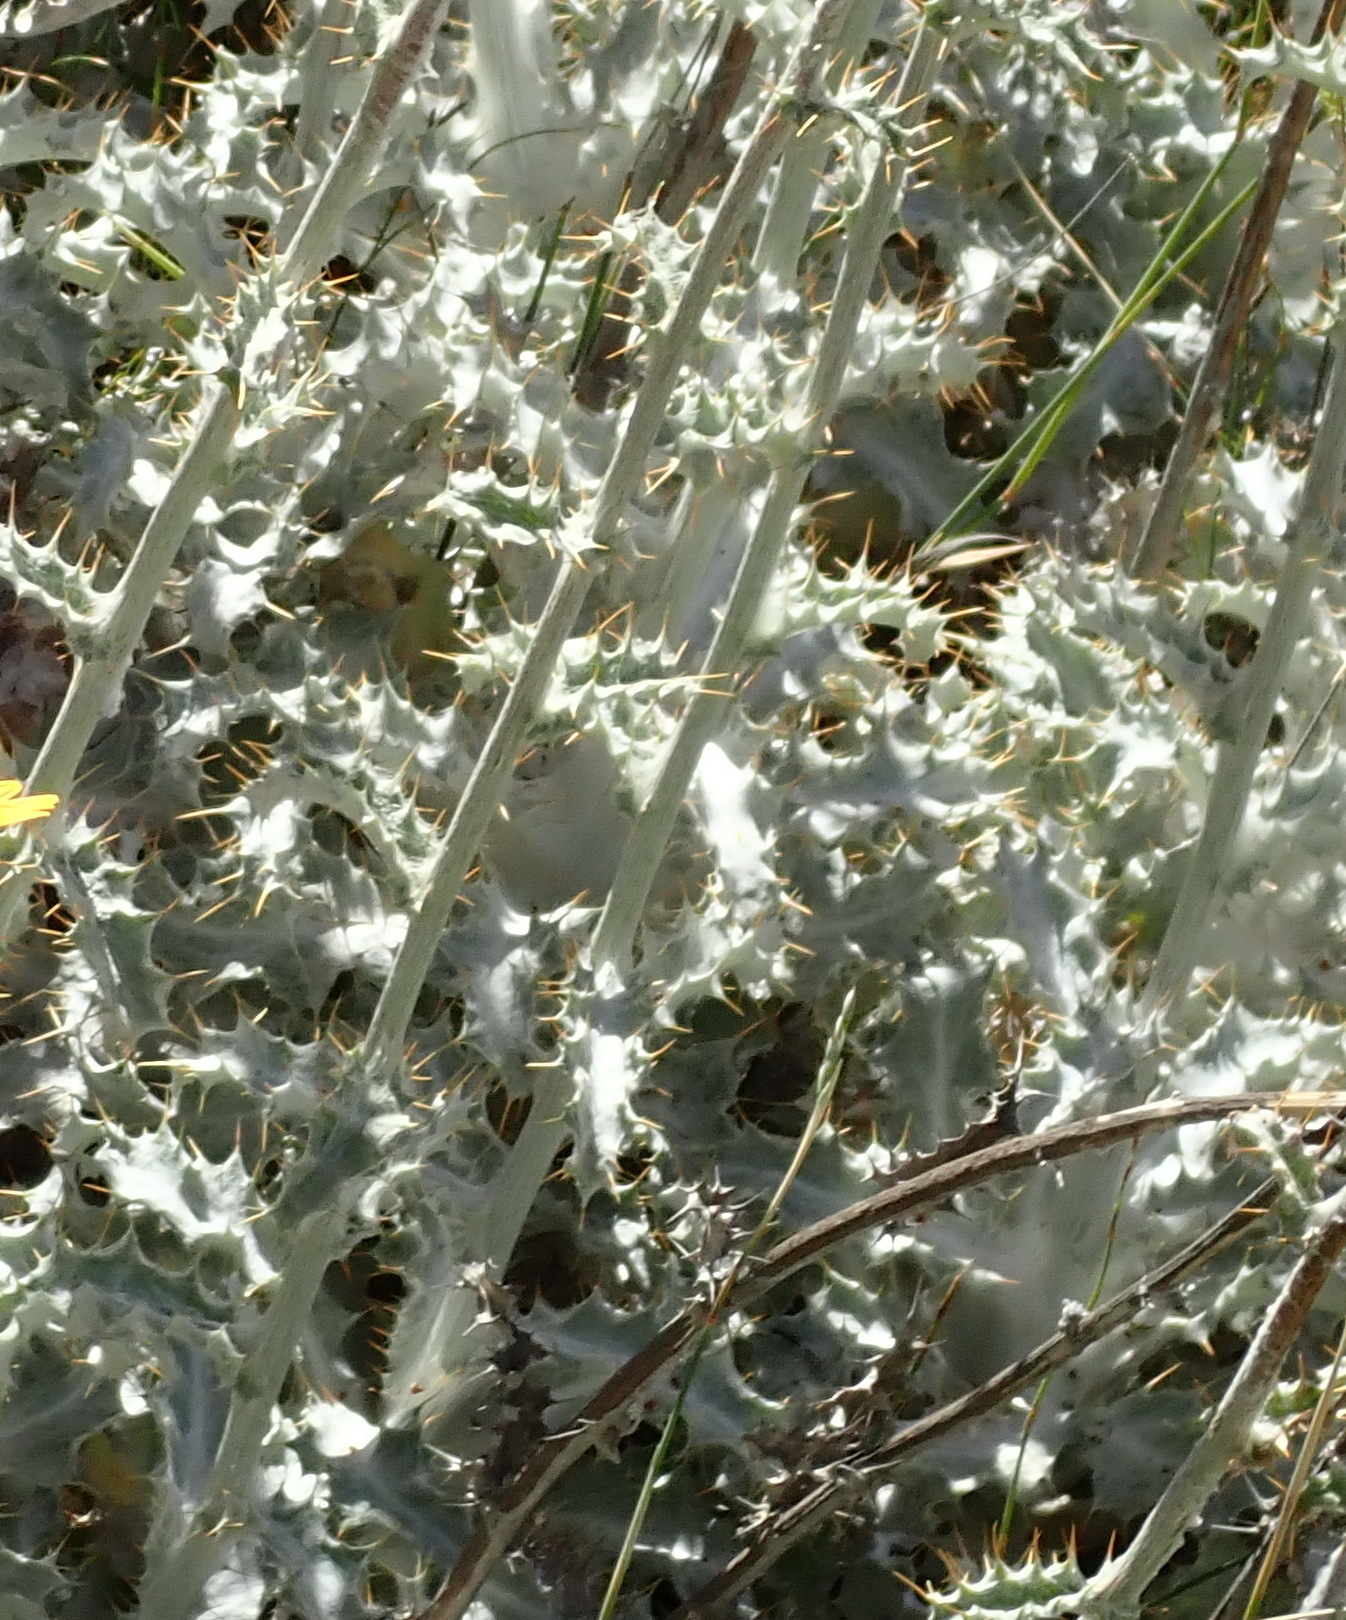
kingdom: Plantae
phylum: Tracheophyta
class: Magnoliopsida
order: Asterales
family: Asteraceae
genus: Berkheya
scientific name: Berkheya francisci
